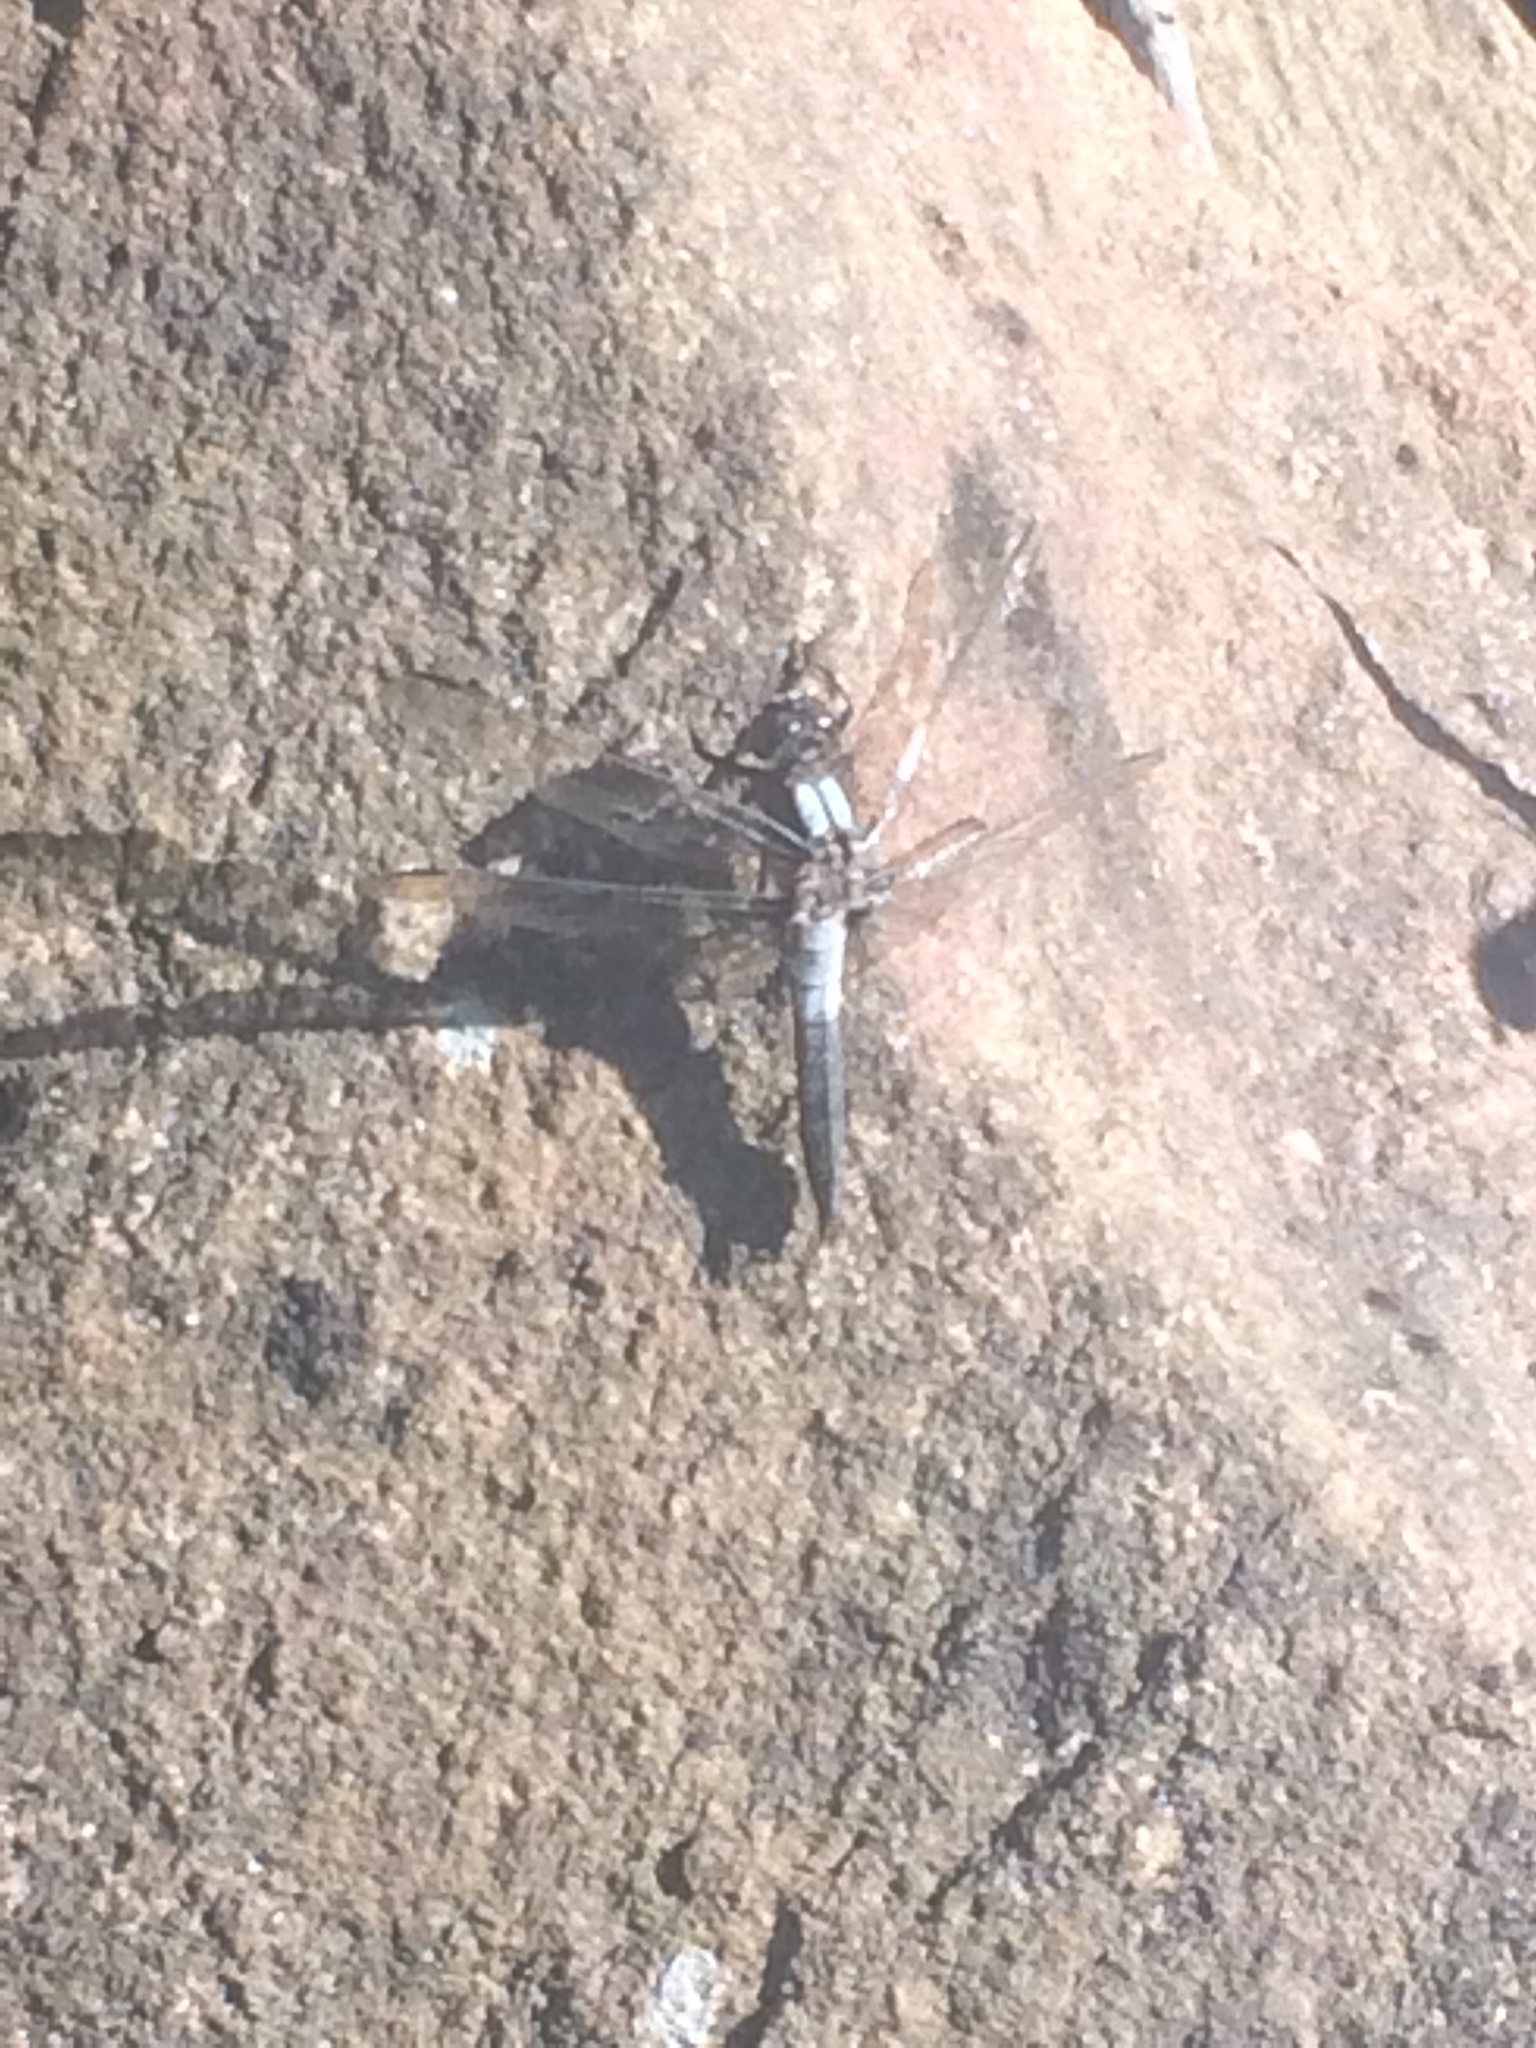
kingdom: Animalia
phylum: Arthropoda
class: Insecta
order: Odonata
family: Libellulidae
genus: Ladona
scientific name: Ladona julia
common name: Chalk-fronted corporal
